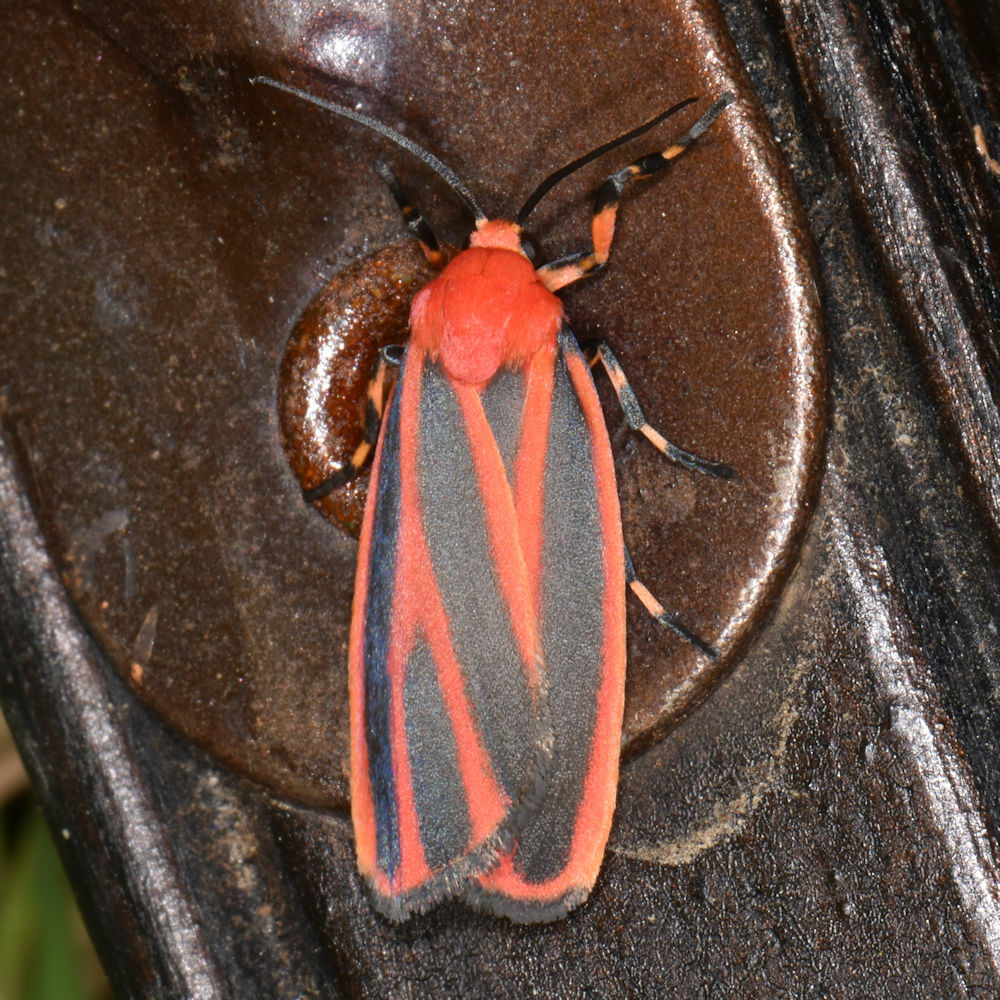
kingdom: Animalia
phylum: Arthropoda
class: Insecta
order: Lepidoptera
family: Erebidae
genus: Hypoprepia
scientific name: Hypoprepia miniata
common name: Scarlet-winged lichen moth
